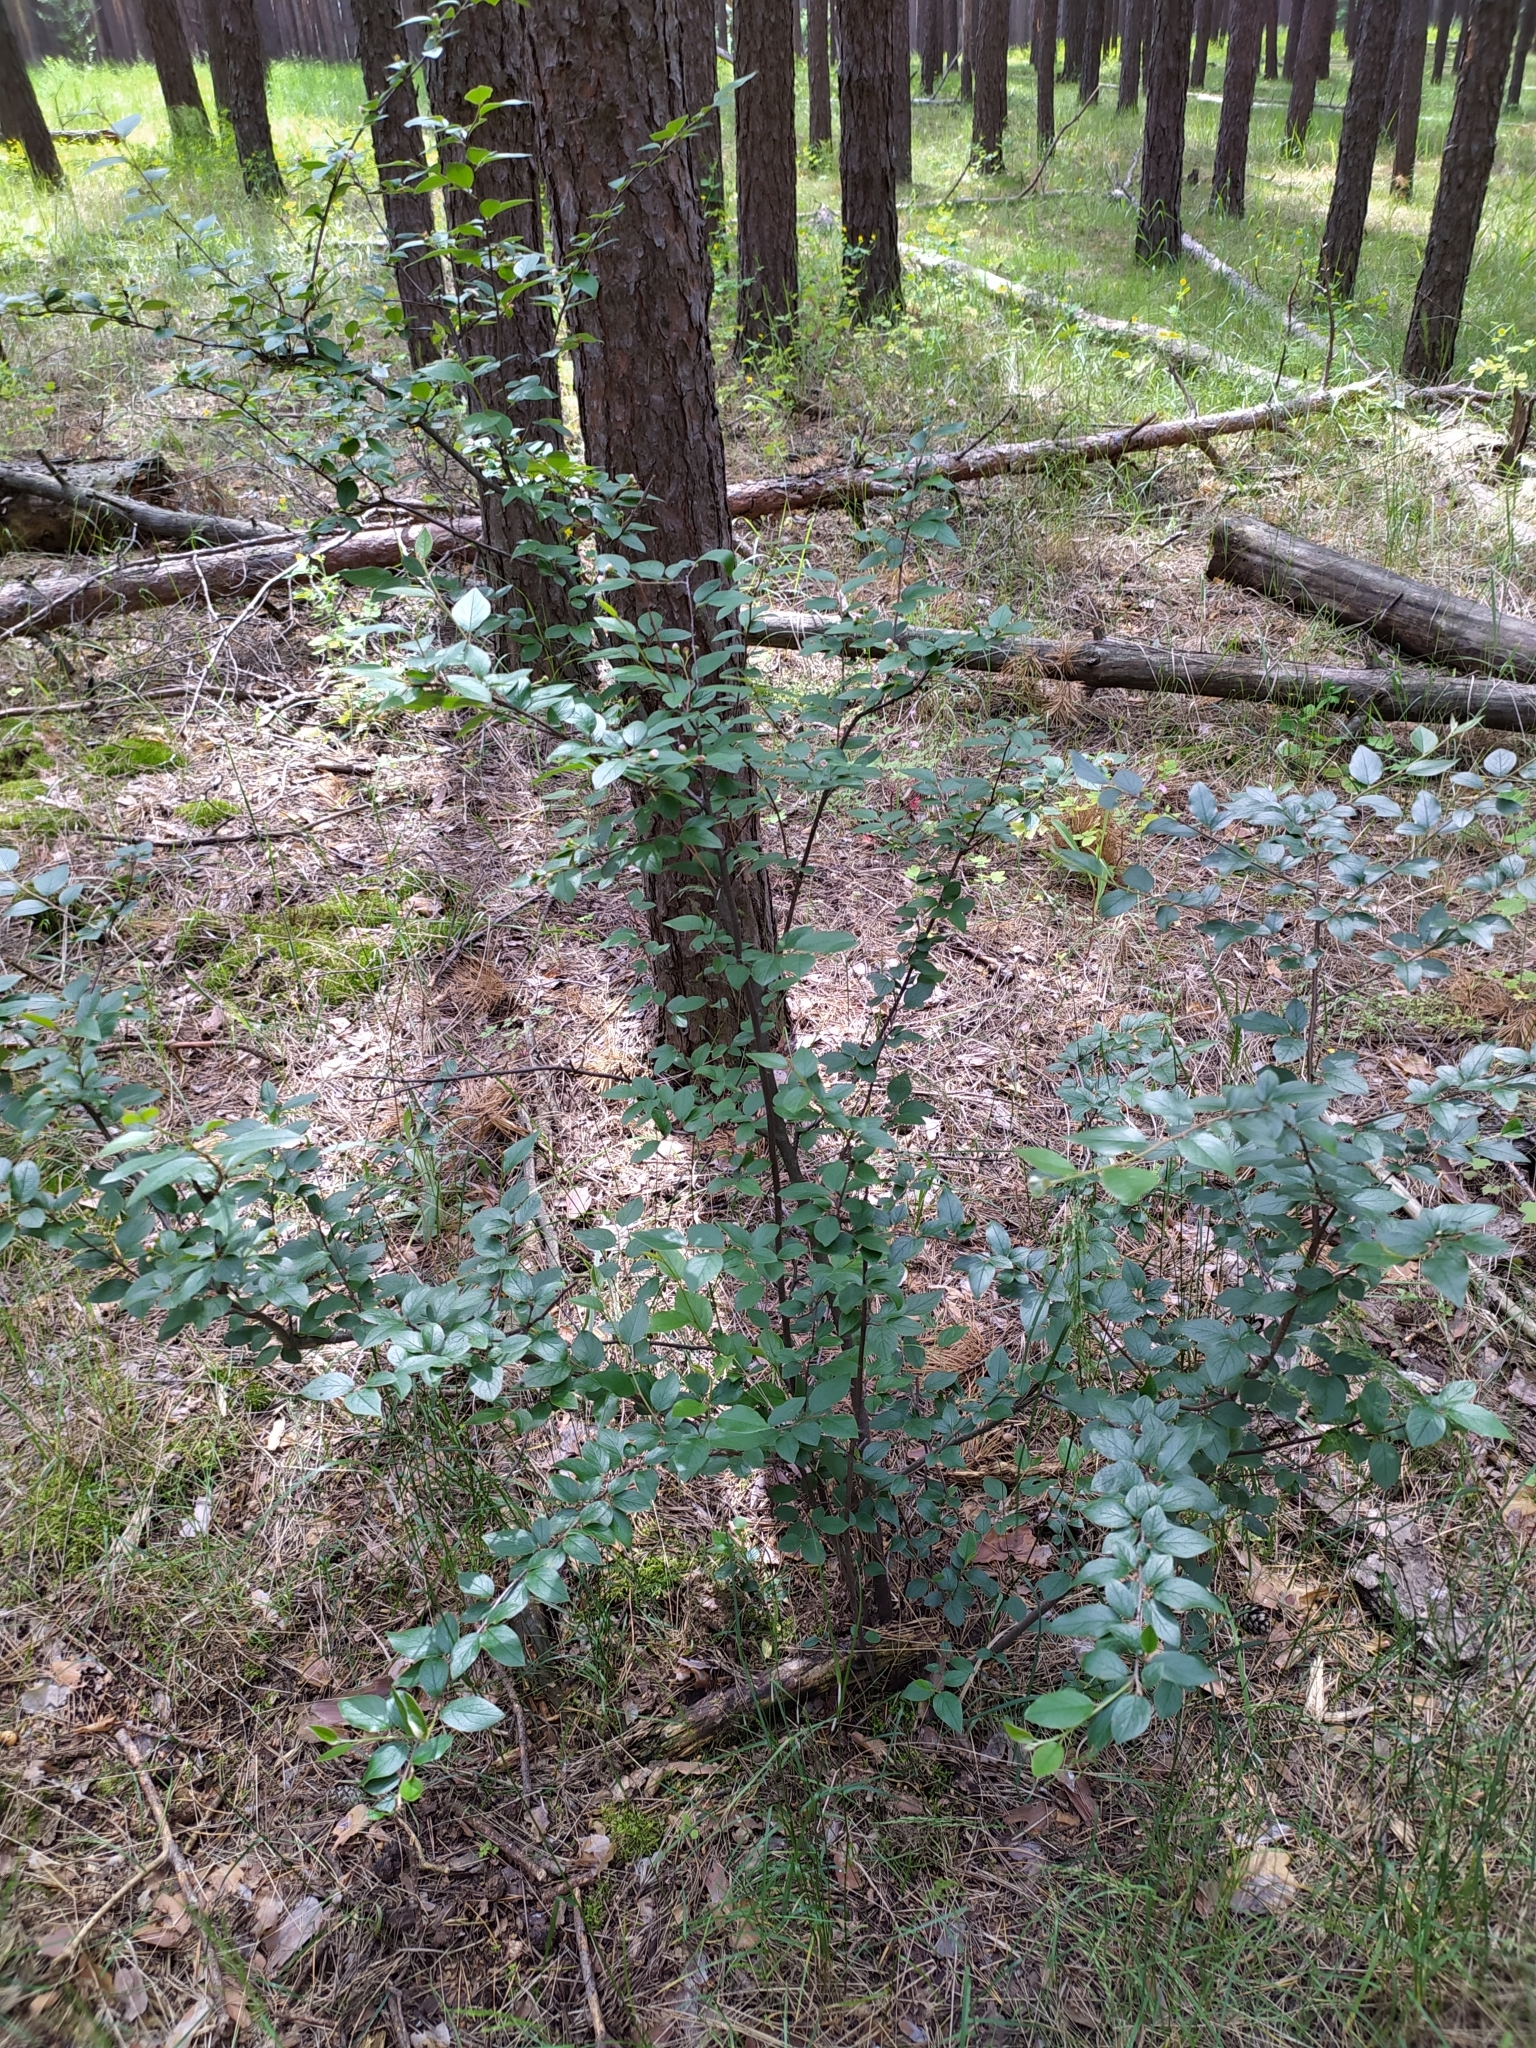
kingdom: Plantae
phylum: Tracheophyta
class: Magnoliopsida
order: Rosales
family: Rosaceae
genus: Cotoneaster
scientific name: Cotoneaster acutifolius
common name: Peking cotoneaster
